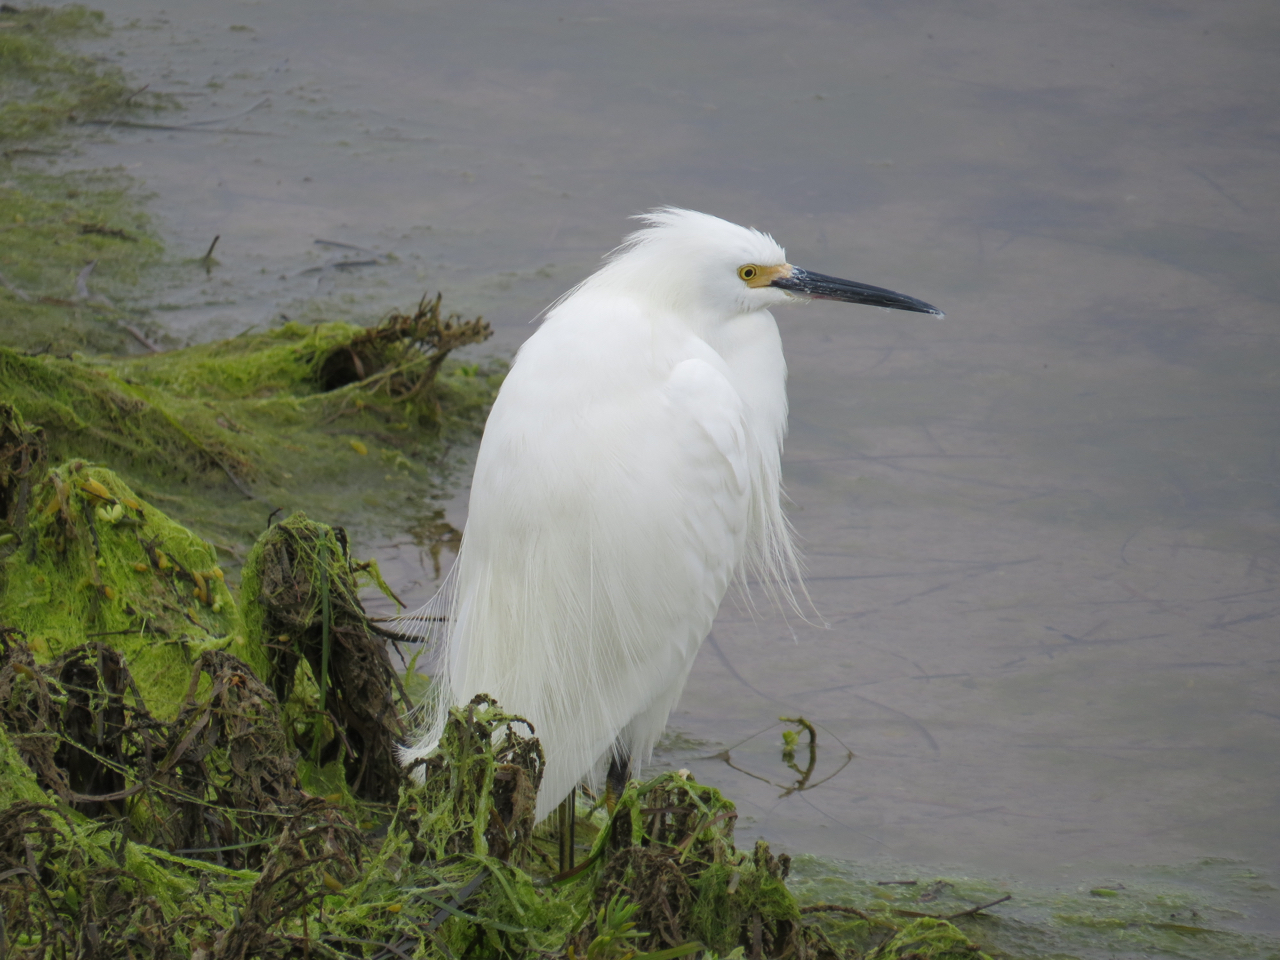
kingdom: Animalia
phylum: Chordata
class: Aves
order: Pelecaniformes
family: Ardeidae
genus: Egretta
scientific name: Egretta thula
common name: Snowy egret
